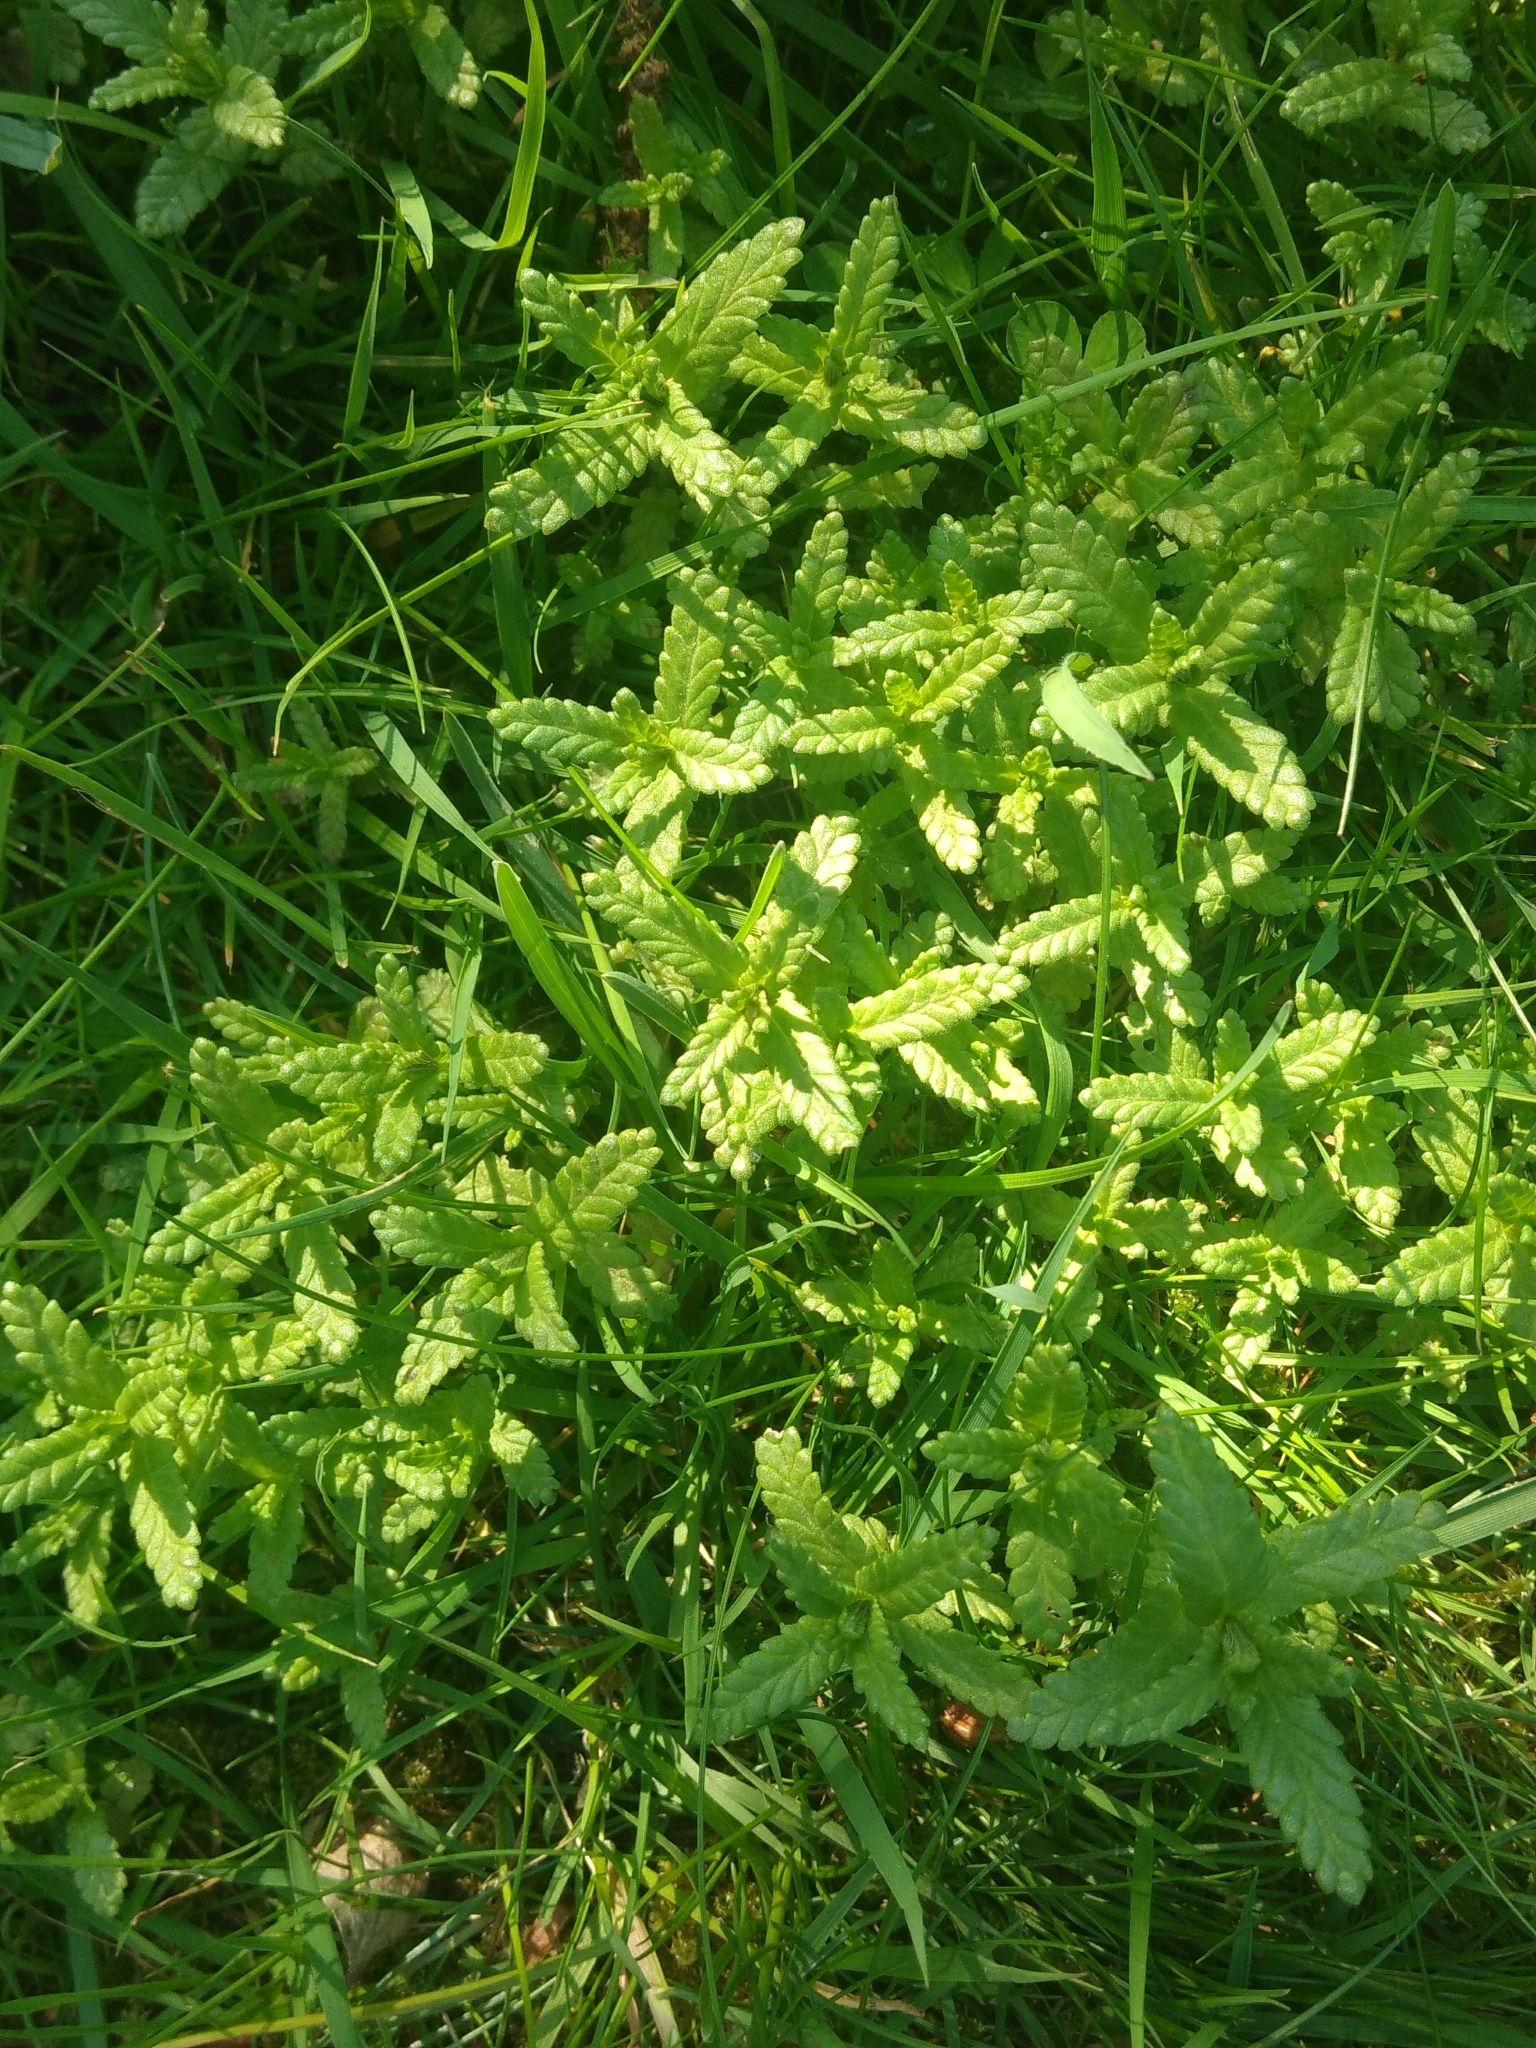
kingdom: Plantae
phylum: Tracheophyta
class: Magnoliopsida
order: Lamiales
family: Orobanchaceae
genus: Rhinanthus
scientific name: Rhinanthus minor
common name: Yellow-rattle
